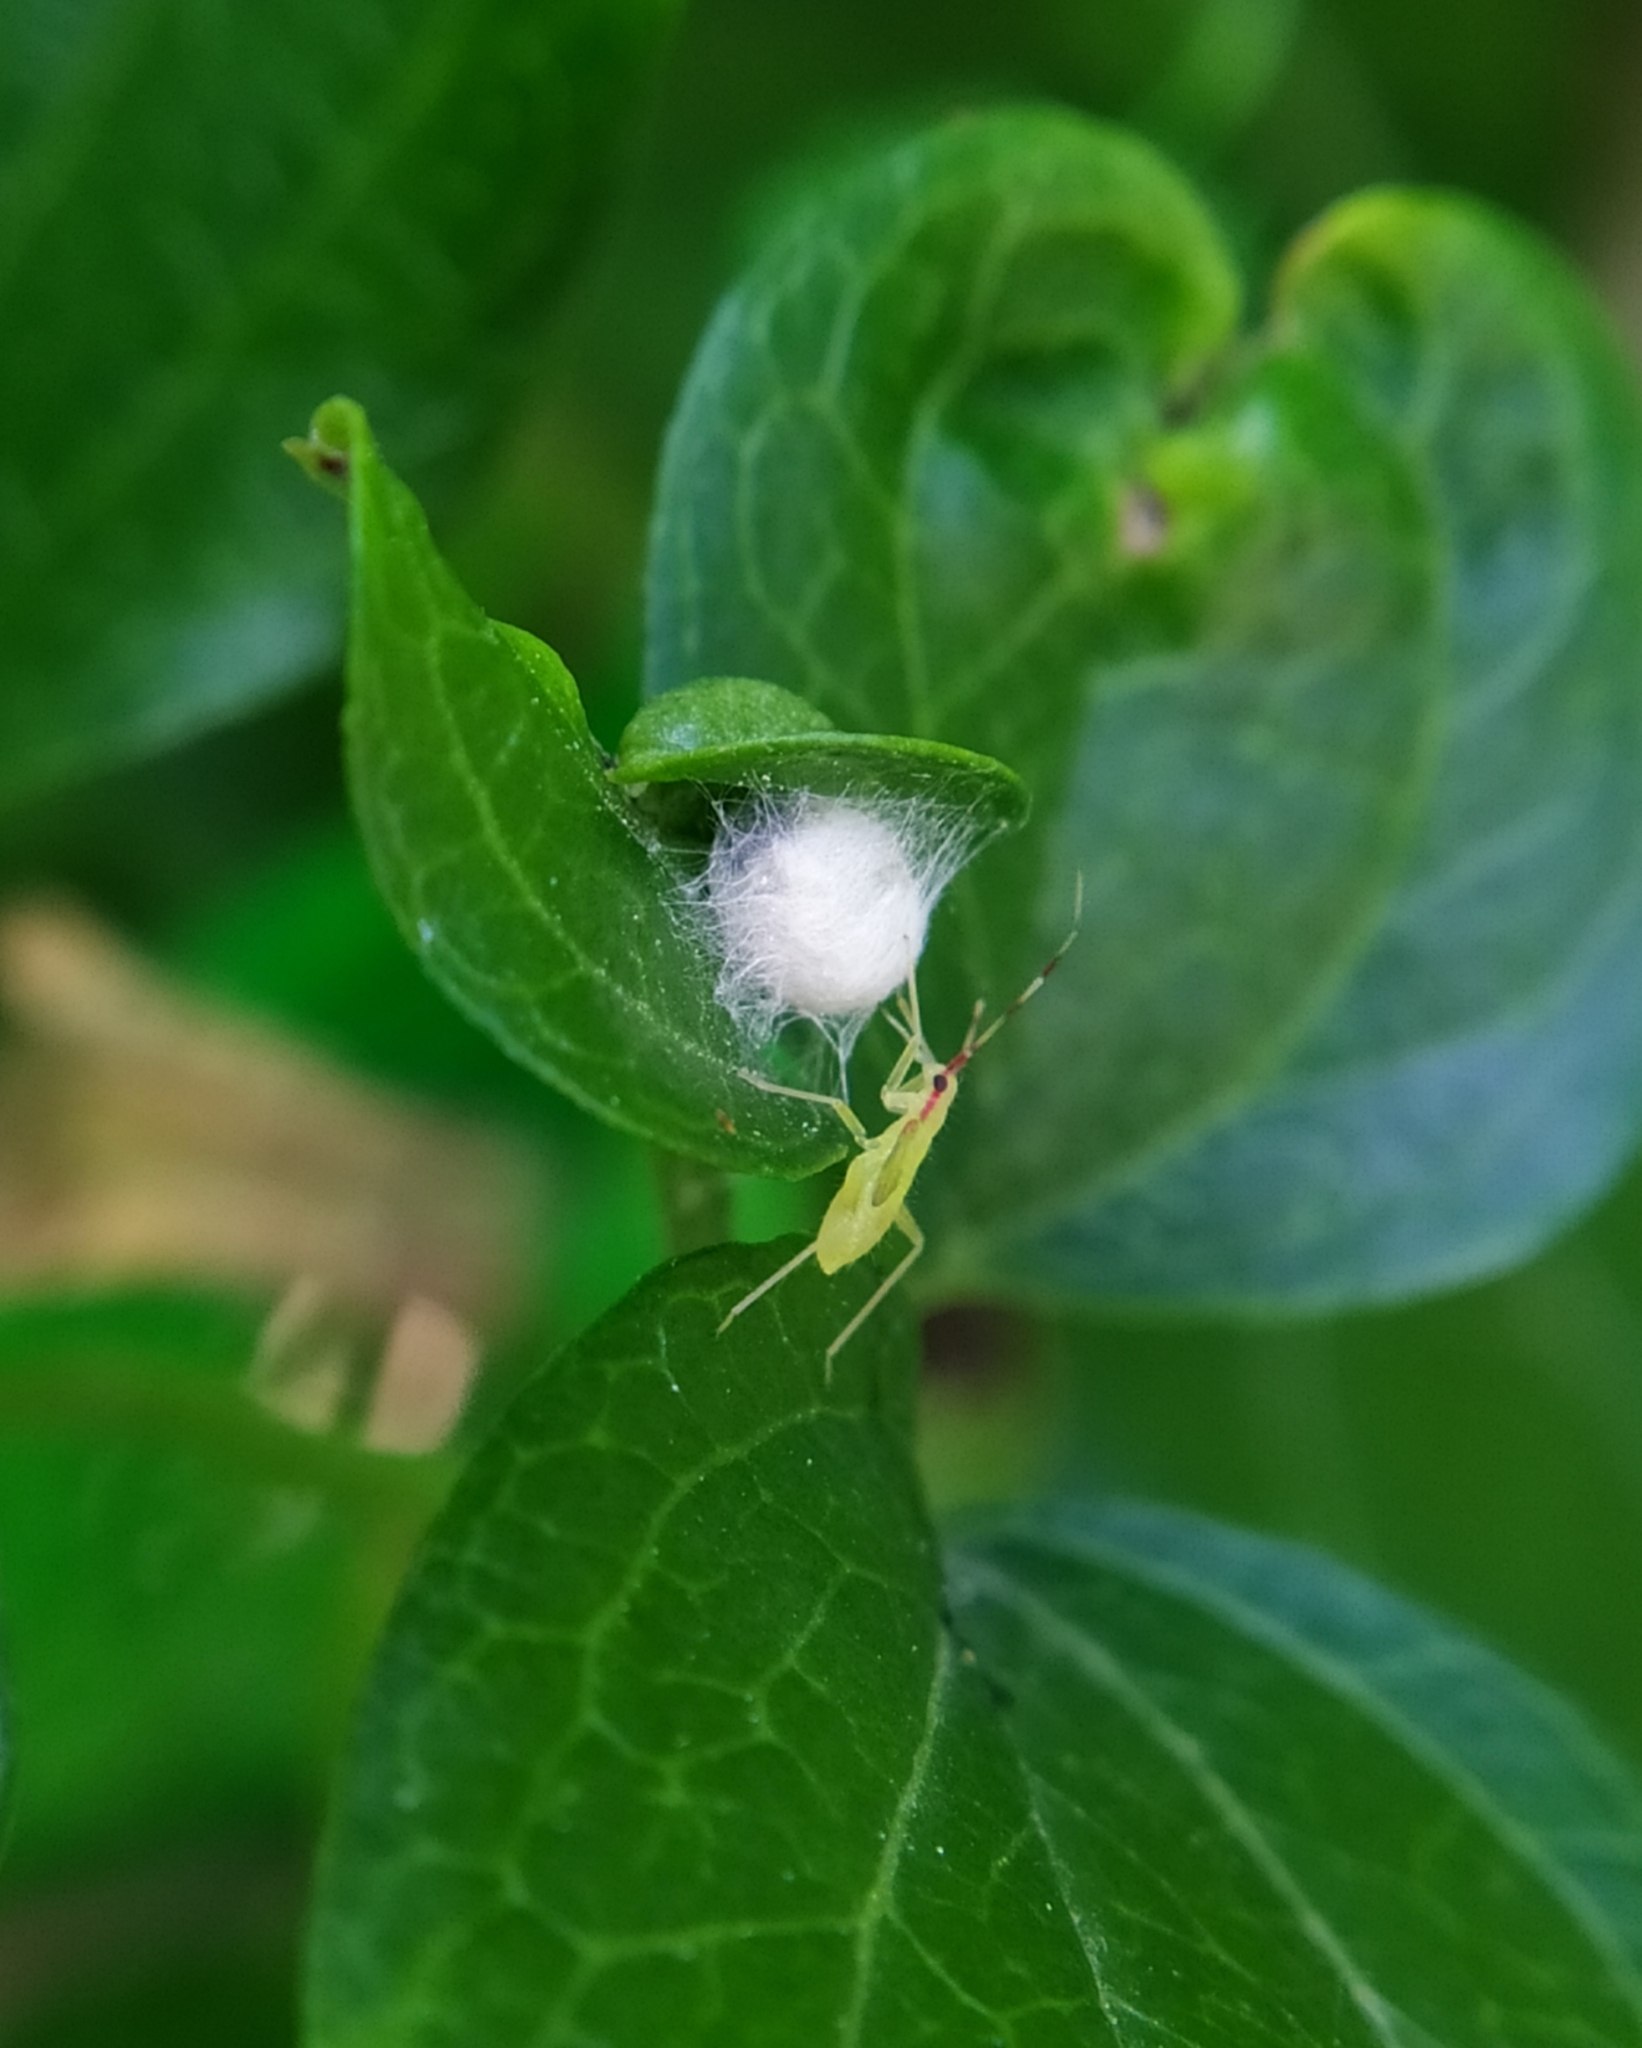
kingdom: Animalia
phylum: Arthropoda
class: Insecta
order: Hemiptera
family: Miridae
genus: Campyloneura
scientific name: Campyloneura virgula
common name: Predatory bug
